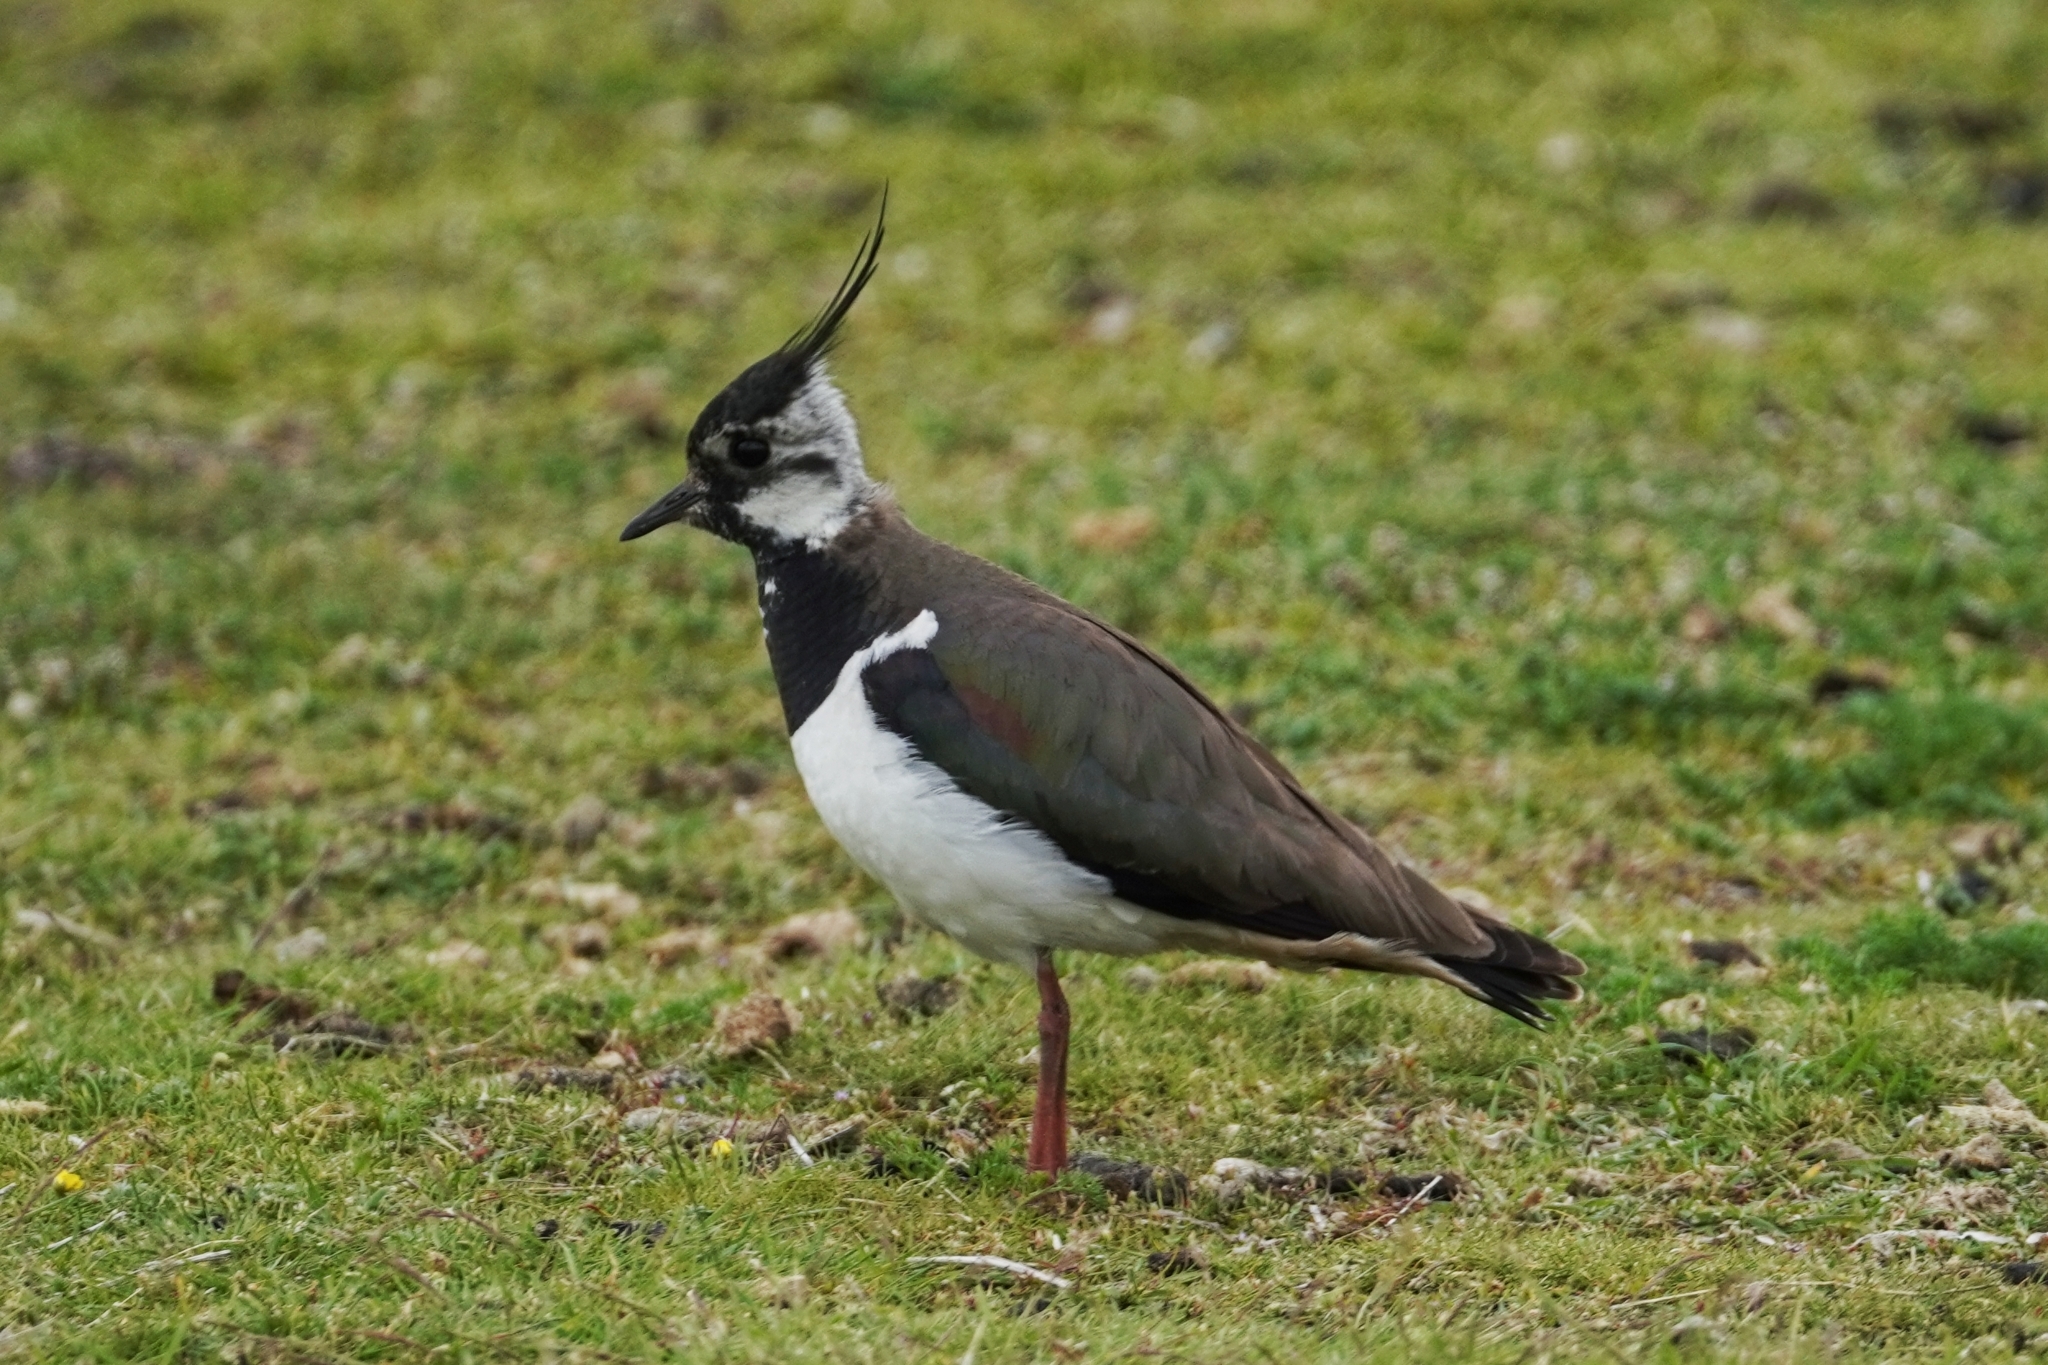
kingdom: Animalia
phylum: Chordata
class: Aves
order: Charadriiformes
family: Charadriidae
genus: Vanellus
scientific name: Vanellus vanellus
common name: Northern lapwing
